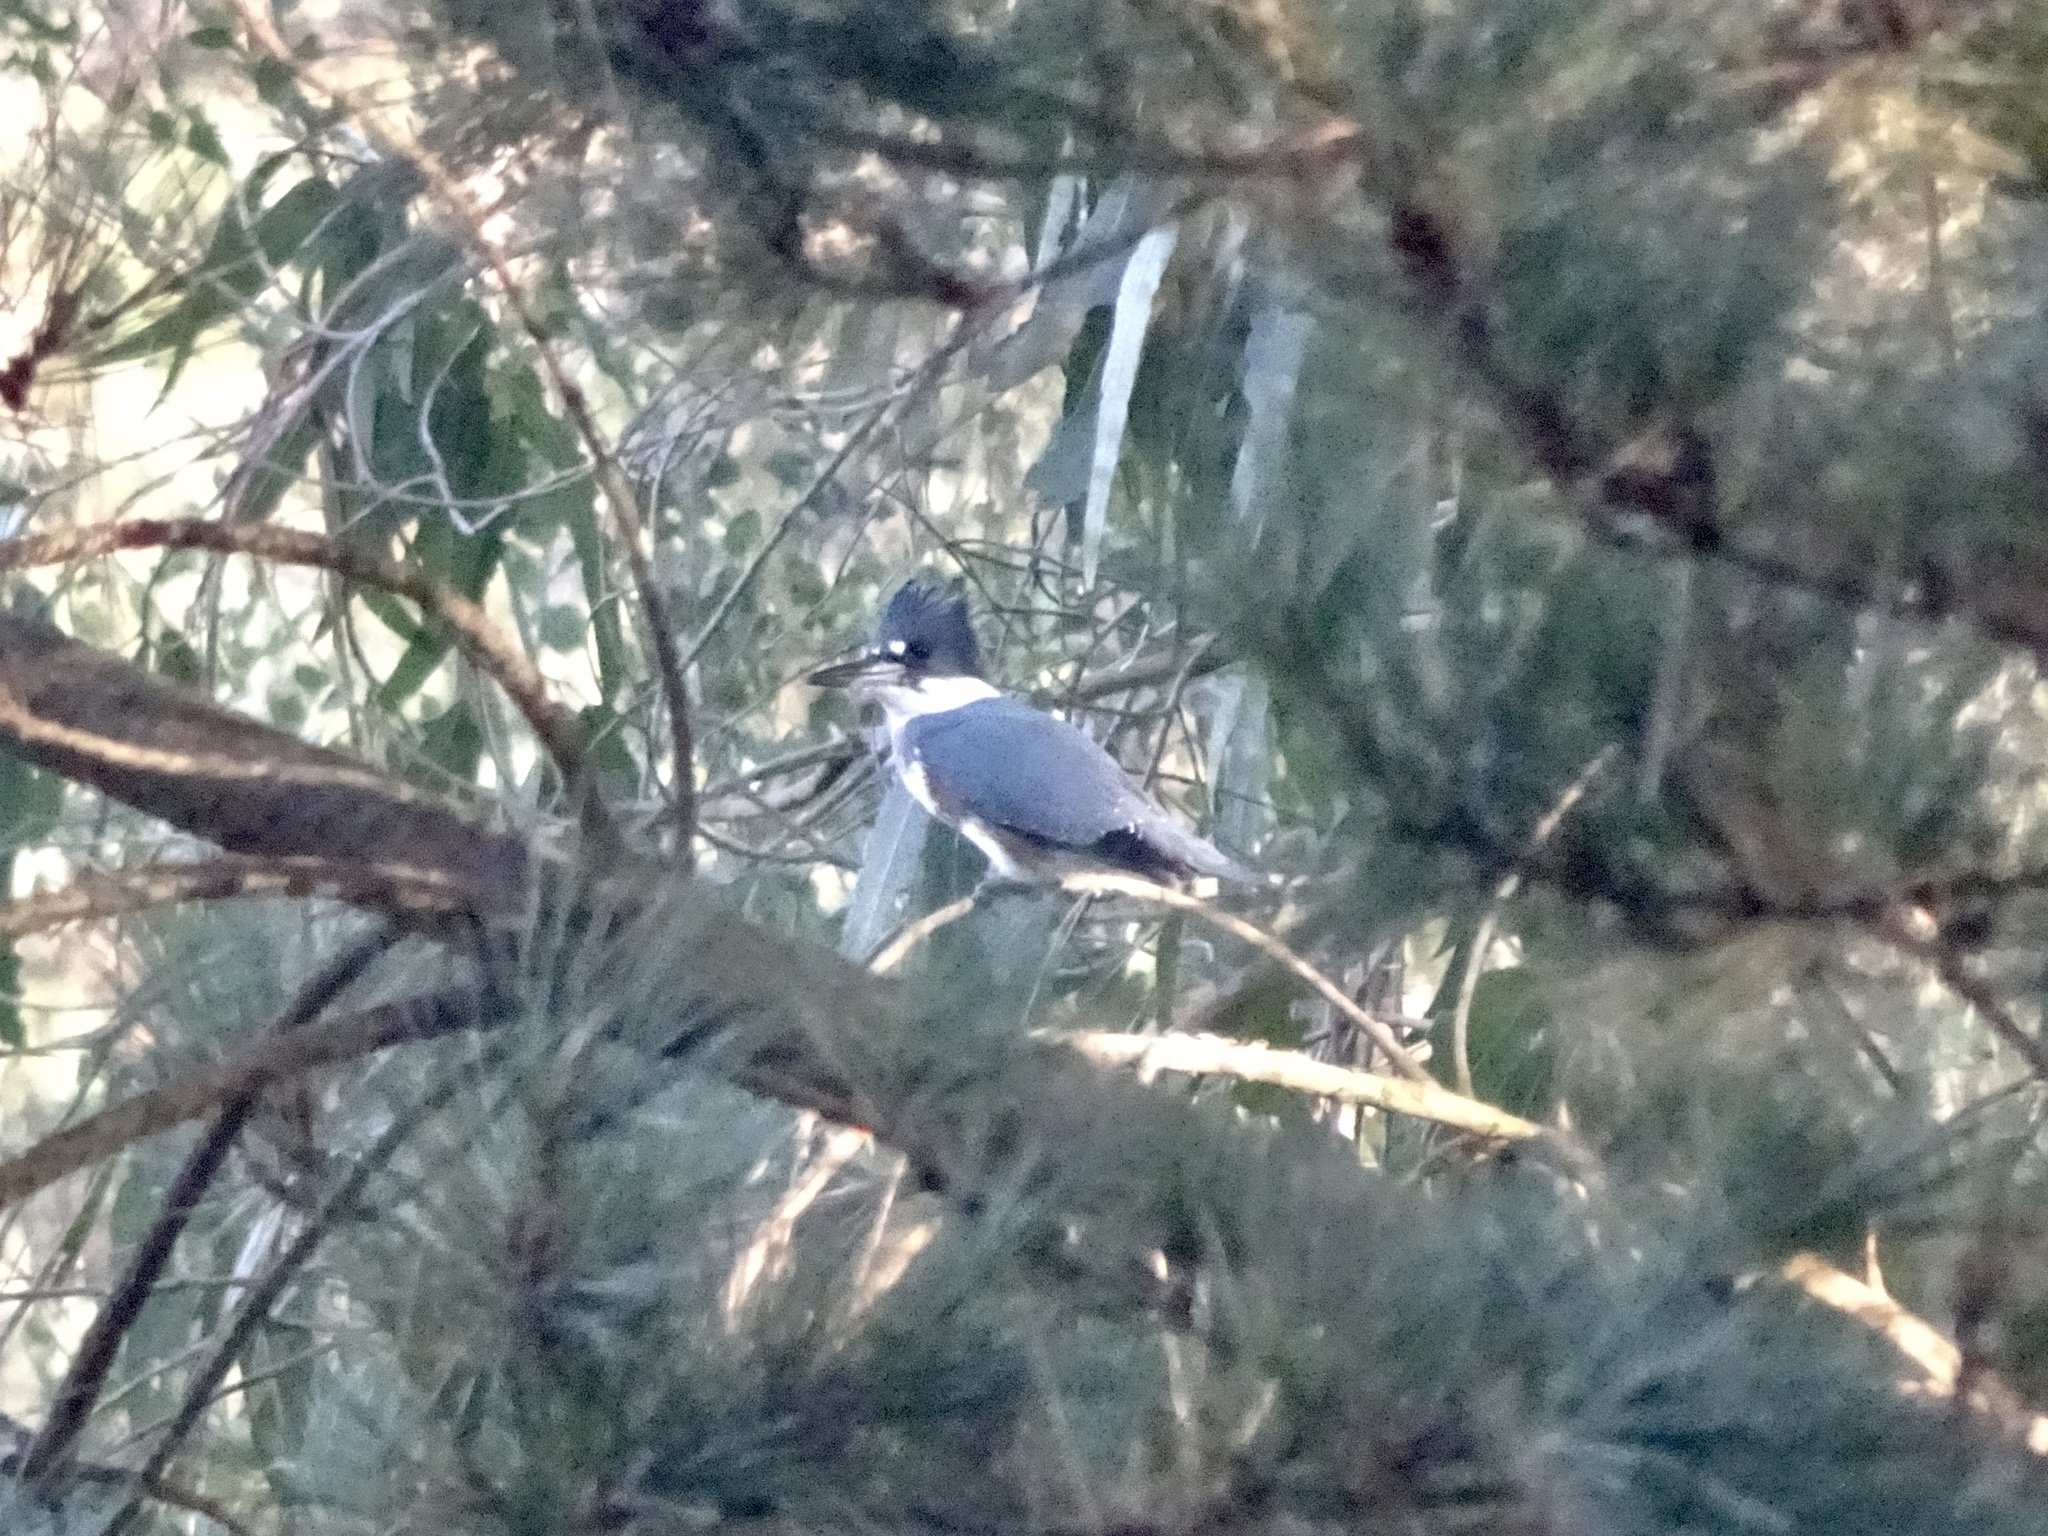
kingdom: Animalia
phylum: Chordata
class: Aves
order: Coraciiformes
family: Alcedinidae
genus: Megaceryle
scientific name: Megaceryle alcyon
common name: Belted kingfisher
